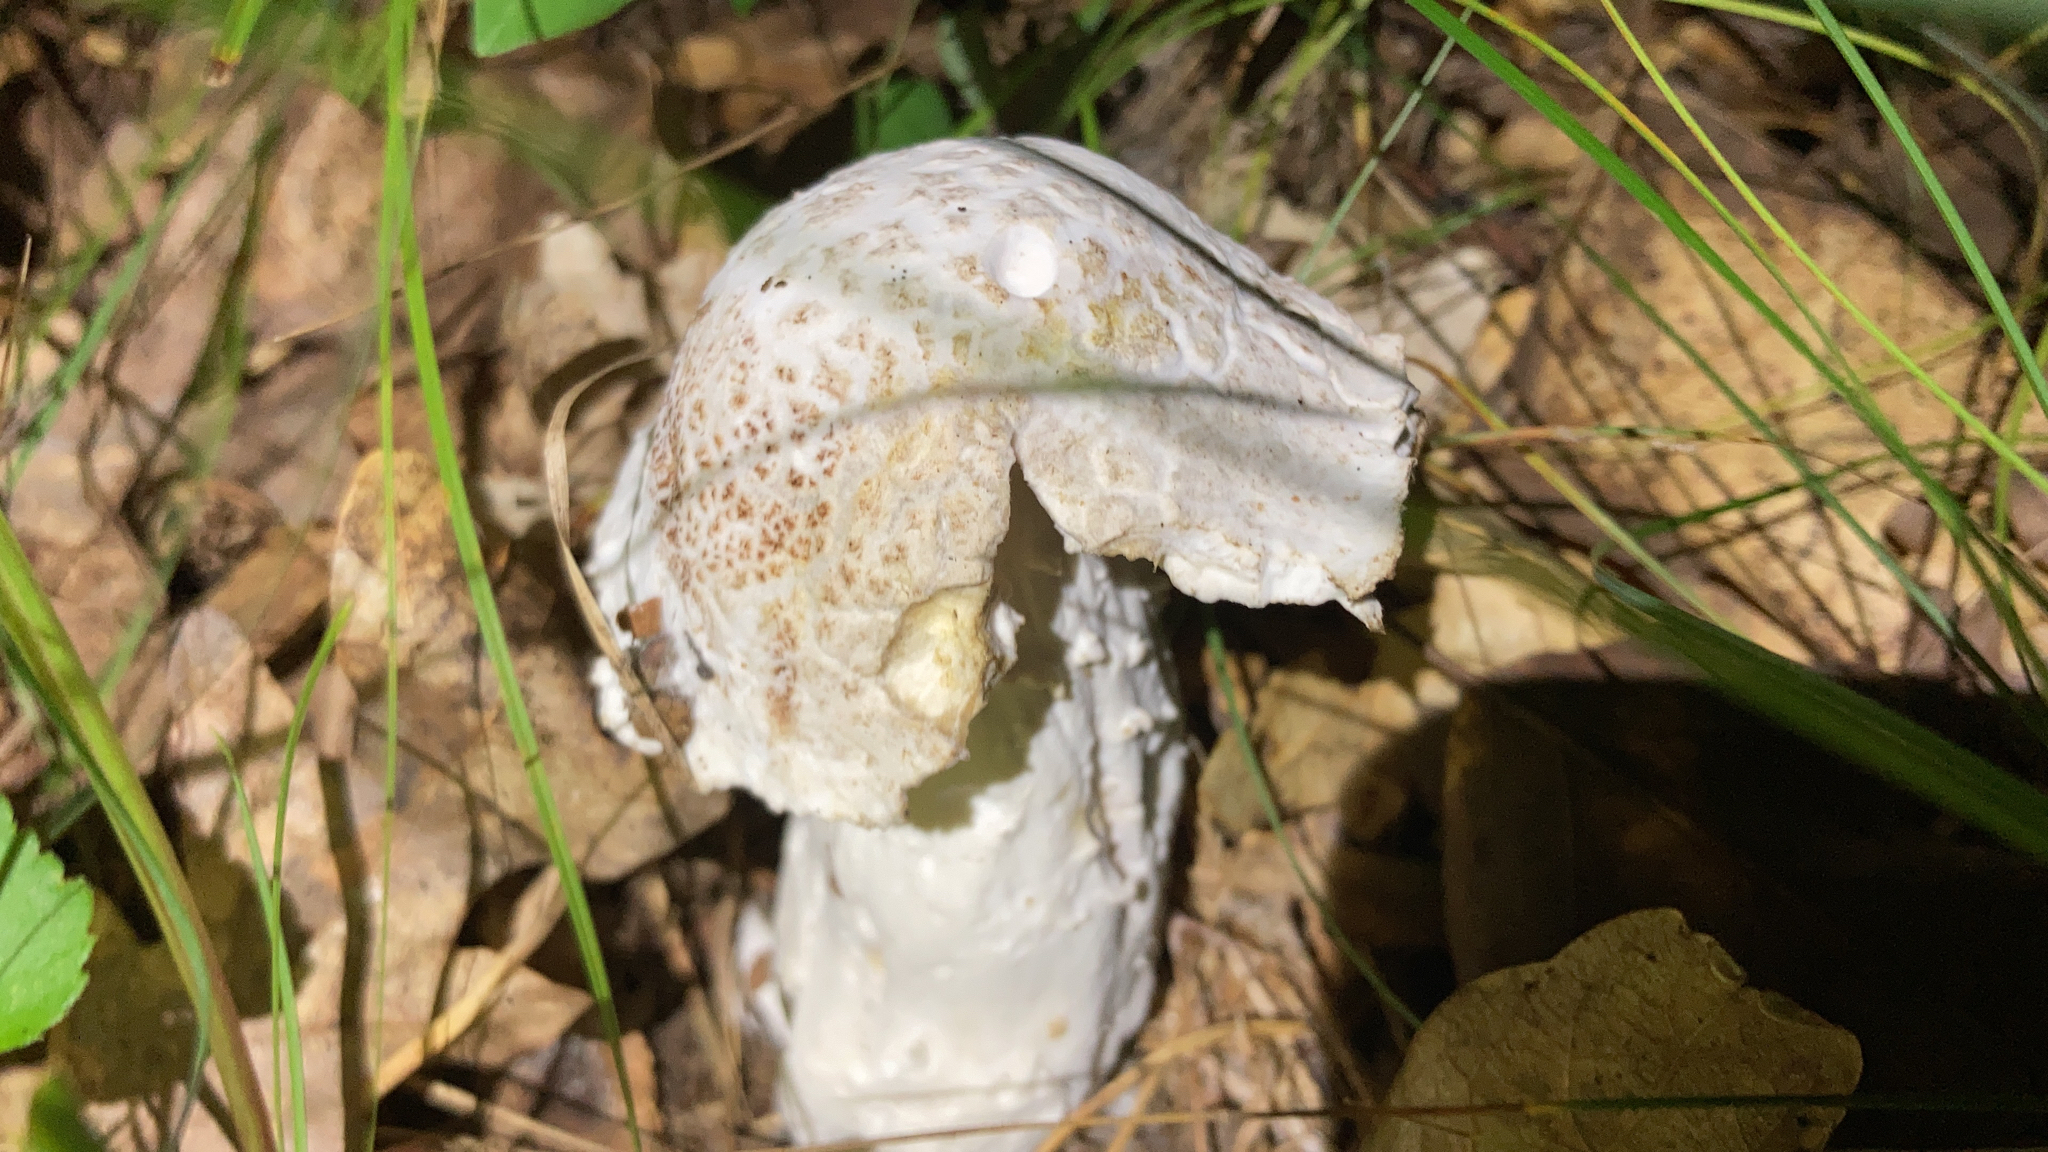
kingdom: Fungi
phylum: Ascomycota
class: Sordariomycetes
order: Hypocreales
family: Hypocreaceae
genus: Hypomyces
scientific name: Hypomyces hyalinus
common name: Amanita mold
